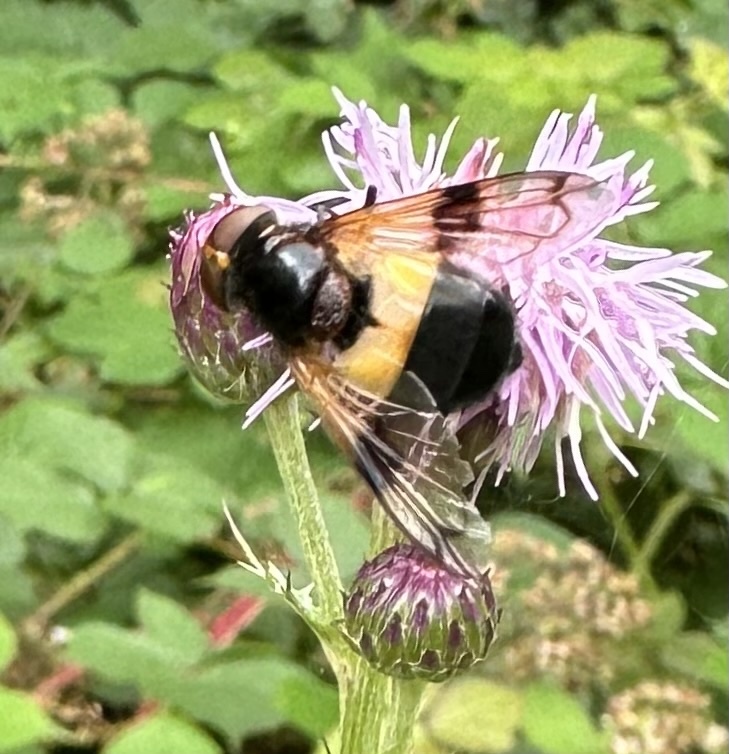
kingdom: Animalia
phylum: Arthropoda
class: Insecta
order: Diptera
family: Syrphidae
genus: Volucella
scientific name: Volucella pellucens
